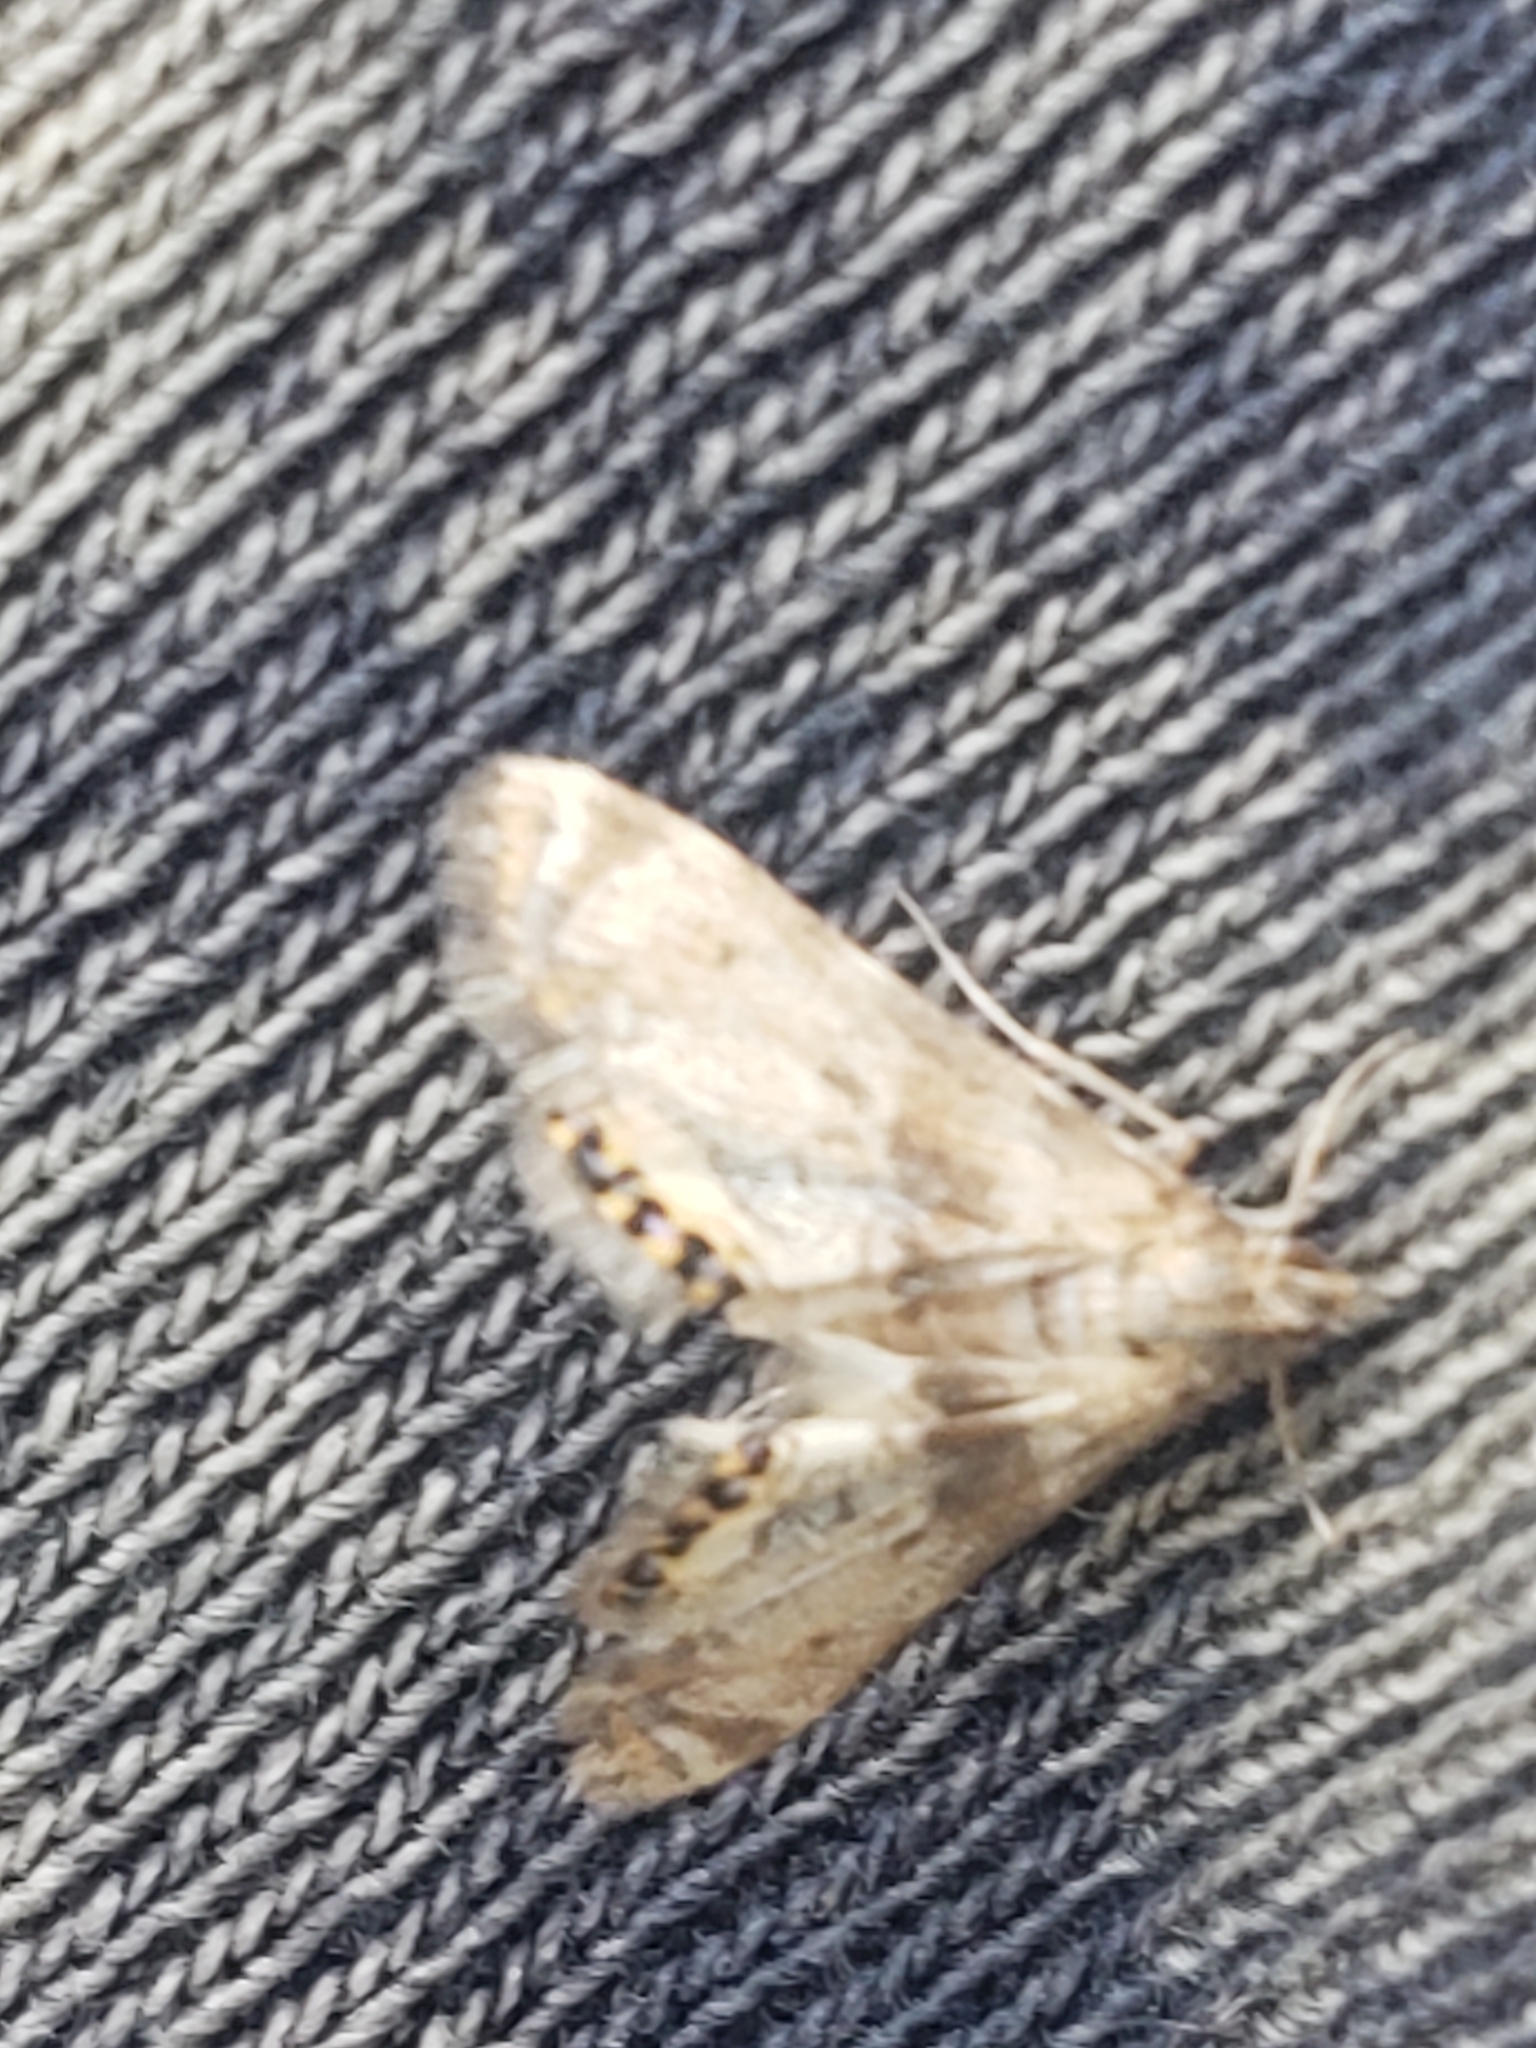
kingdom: Animalia
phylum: Arthropoda
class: Insecta
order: Lepidoptera
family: Crambidae
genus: Petrophila
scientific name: Petrophila fulicalis
